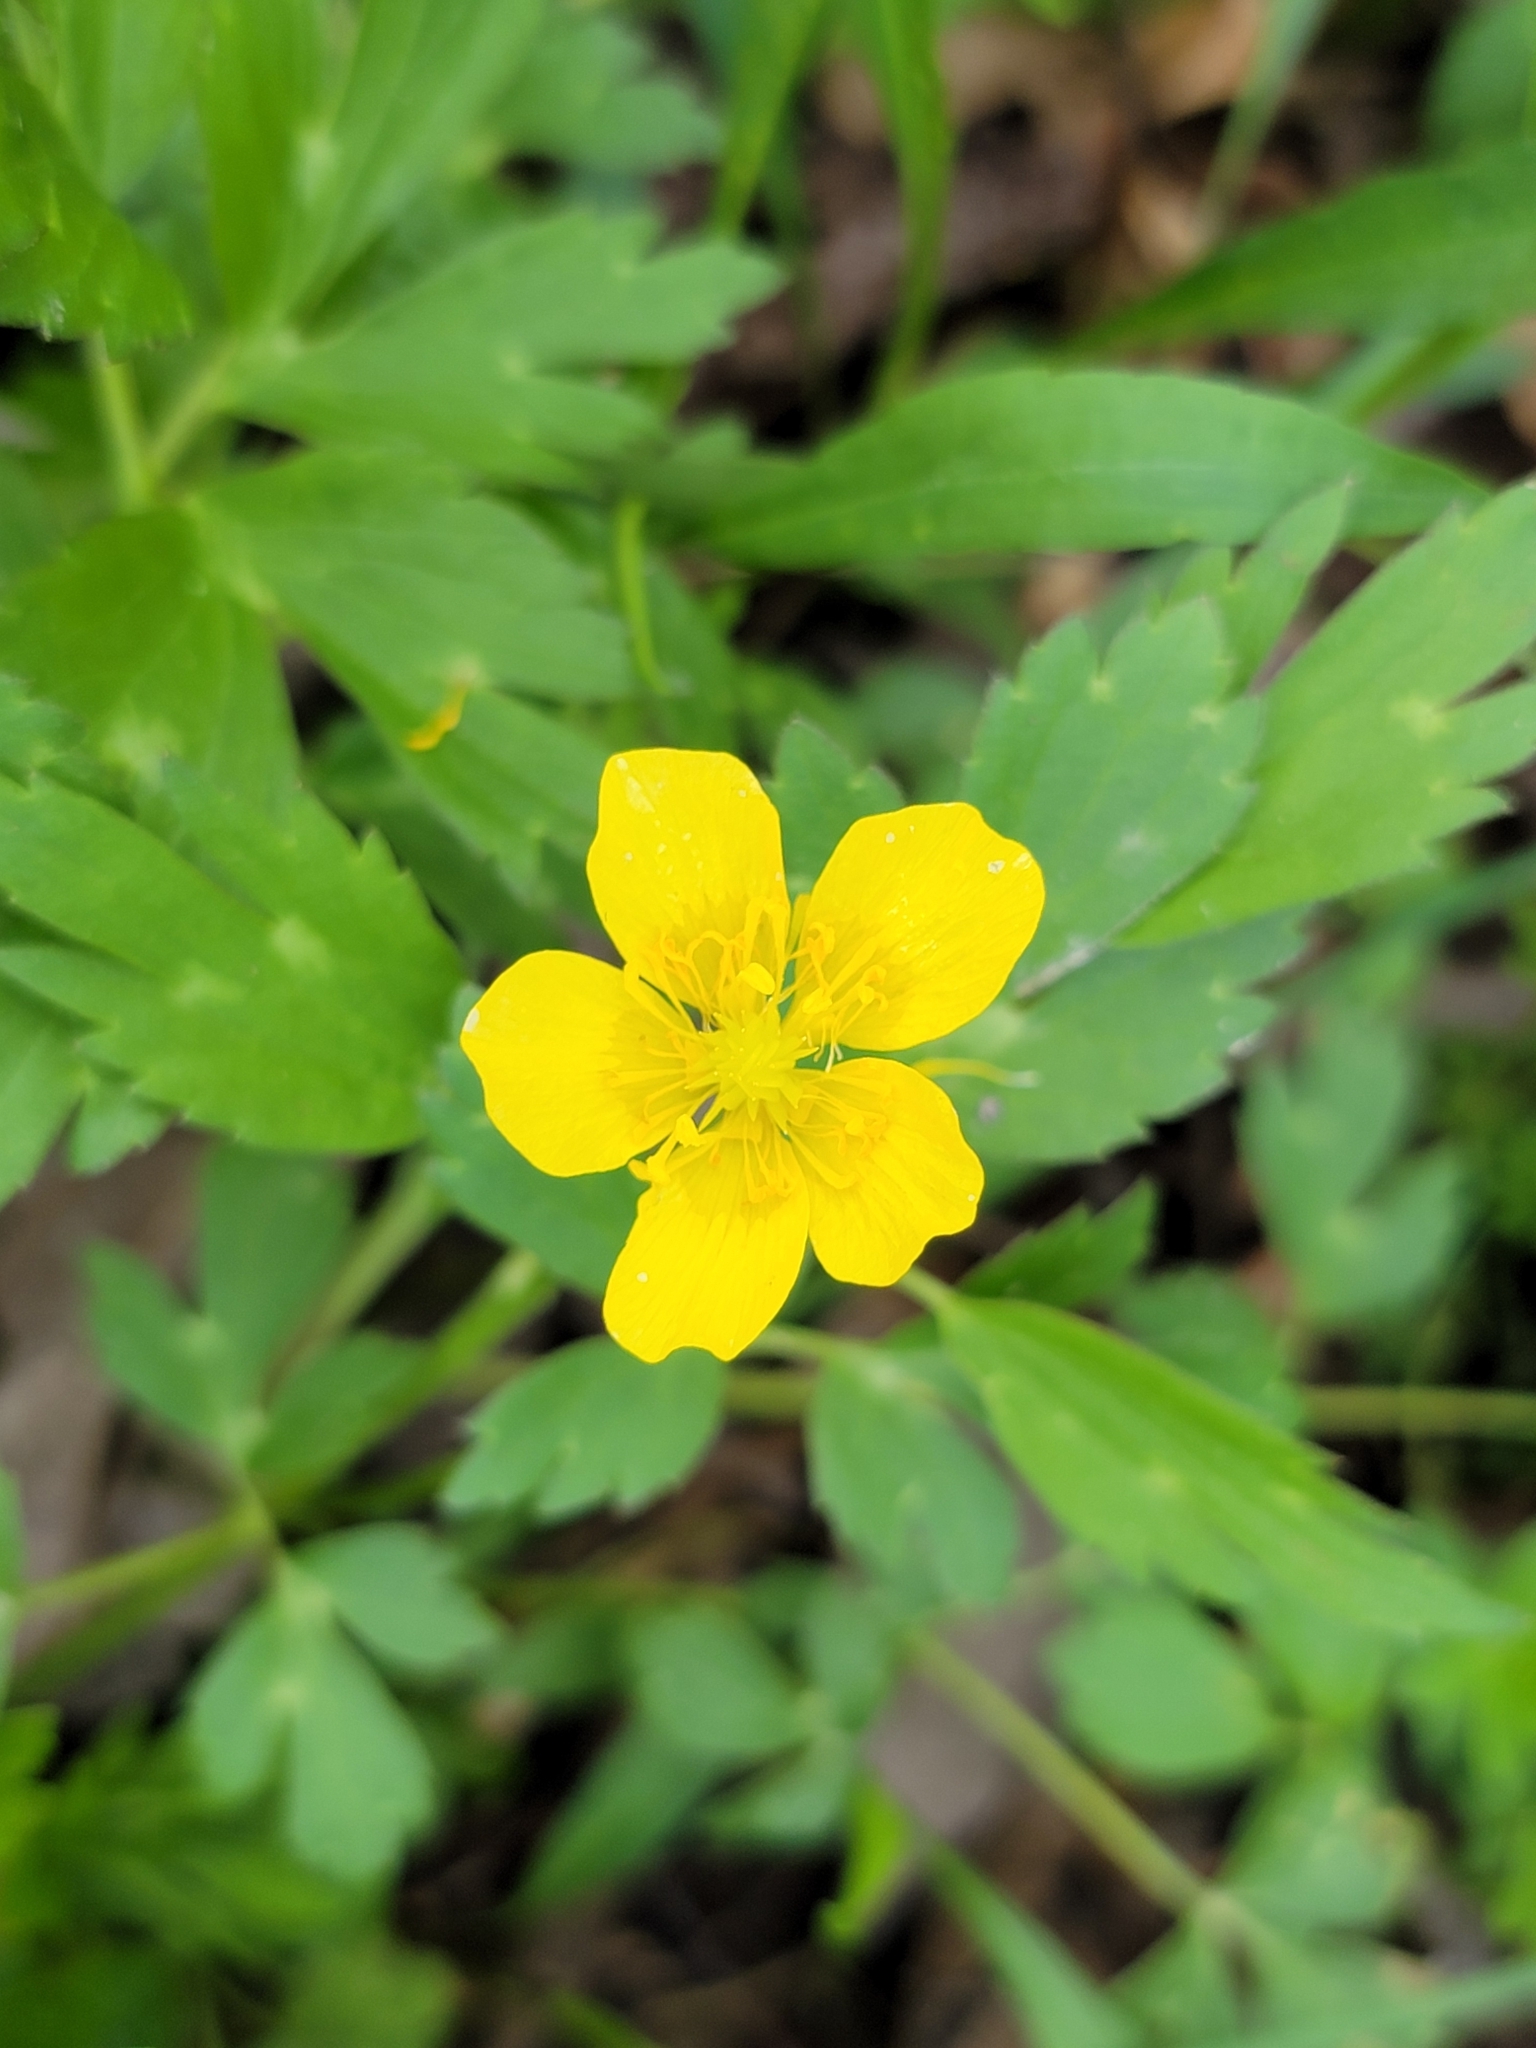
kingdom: Plantae
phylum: Tracheophyta
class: Magnoliopsida
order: Ranunculales
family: Ranunculaceae
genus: Ranunculus
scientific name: Ranunculus hispidus
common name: Bristly buttercup
